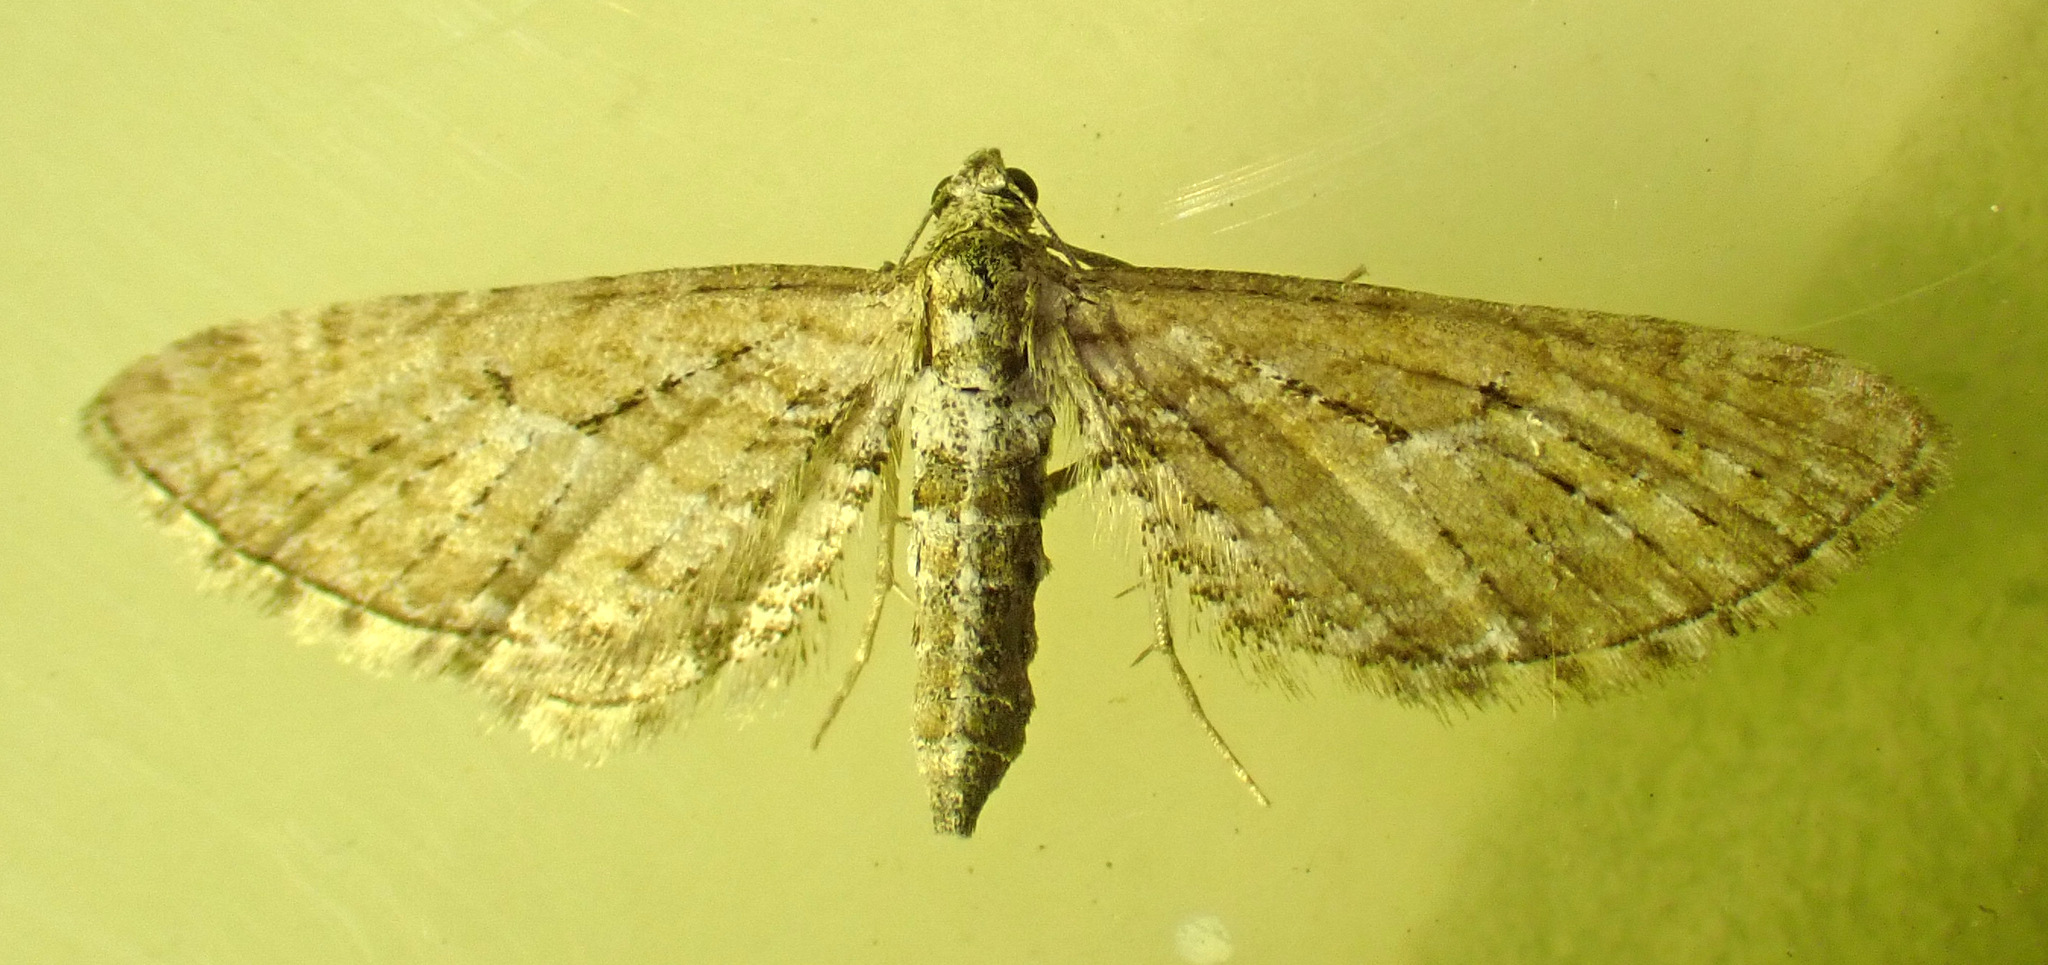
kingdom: Animalia
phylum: Arthropoda
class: Insecta
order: Lepidoptera
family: Geometridae
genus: Eupithecia
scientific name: Eupithecia intricata
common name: Freyers pug
